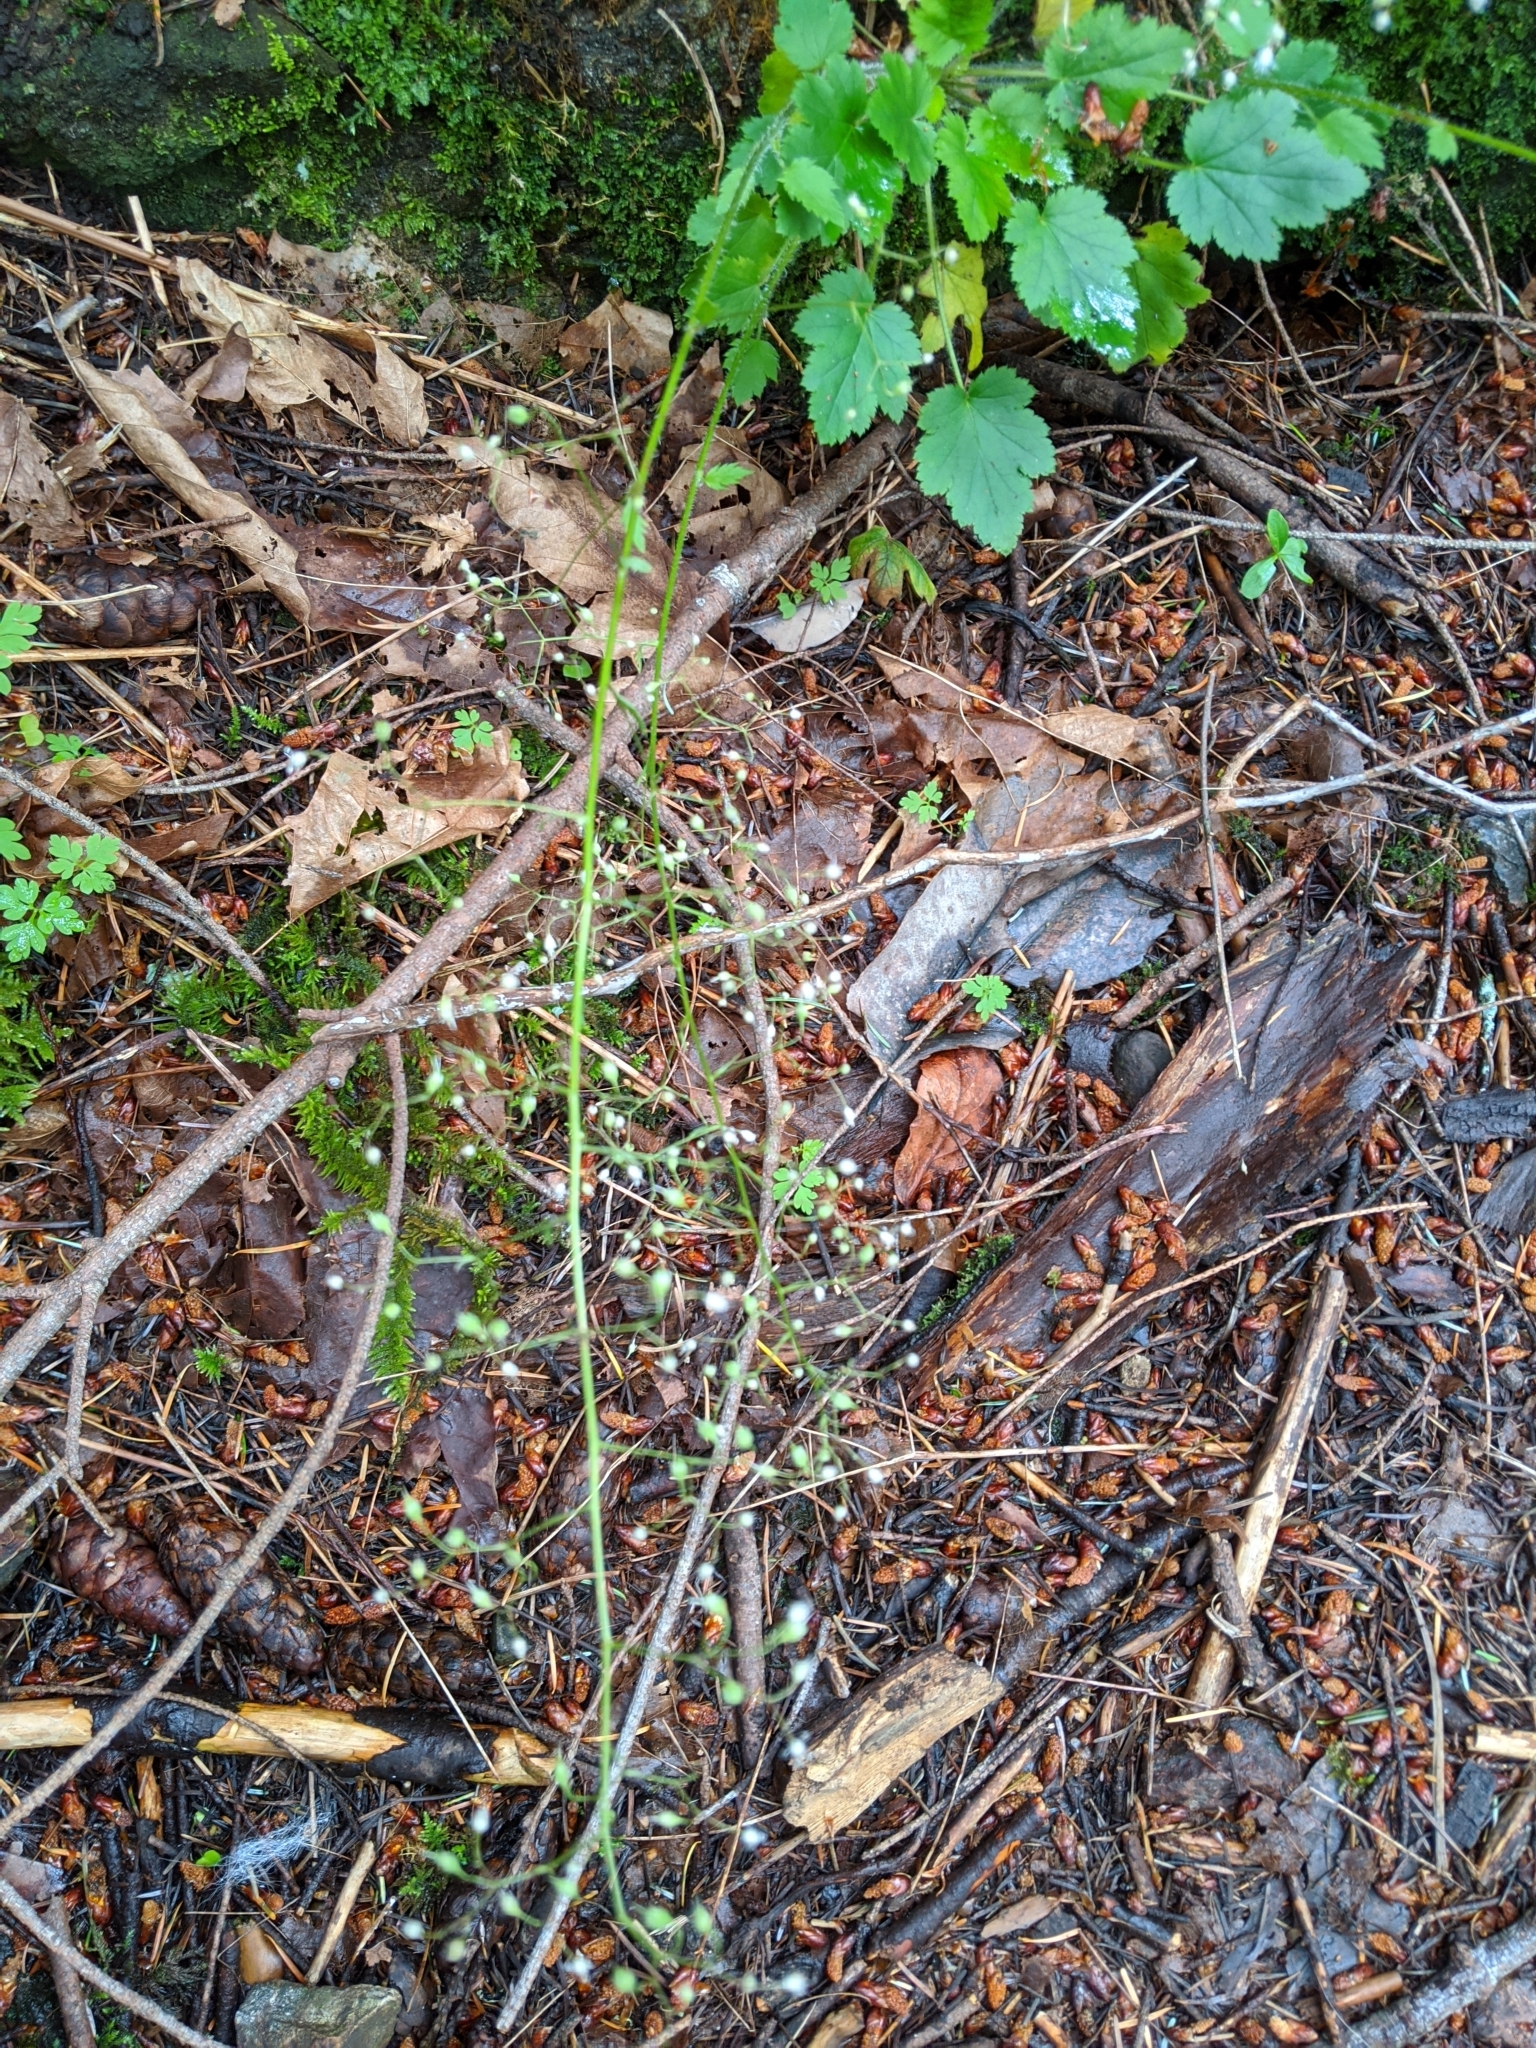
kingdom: Plantae
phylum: Tracheophyta
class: Magnoliopsida
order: Saxifragales
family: Saxifragaceae
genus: Heuchera
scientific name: Heuchera micrantha
